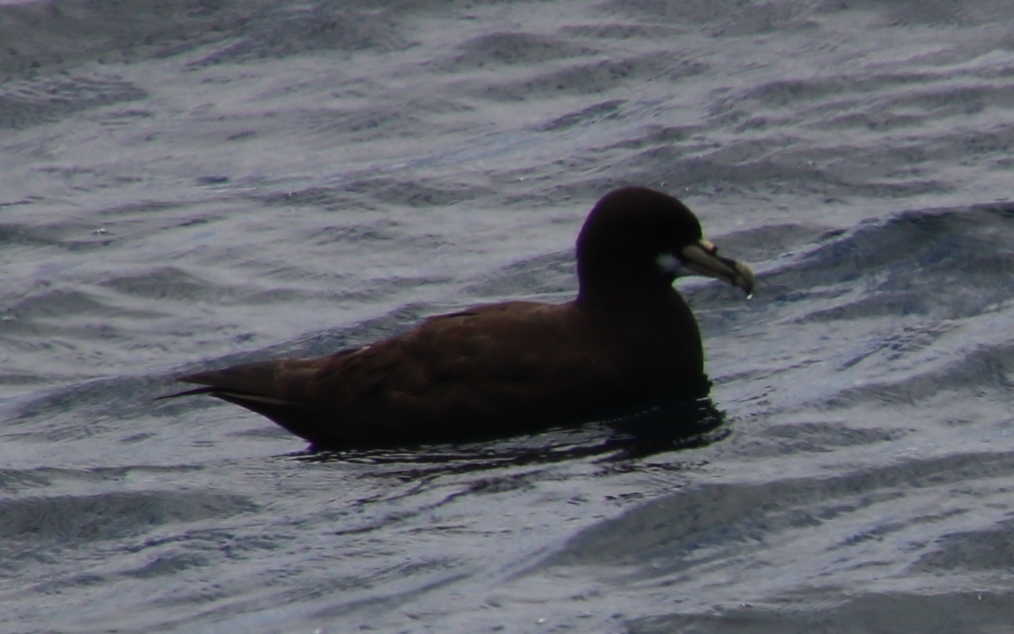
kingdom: Animalia
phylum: Chordata
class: Aves
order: Procellariiformes
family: Procellariidae
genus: Procellaria
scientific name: Procellaria aequinoctialis
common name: White-chinned petrel
